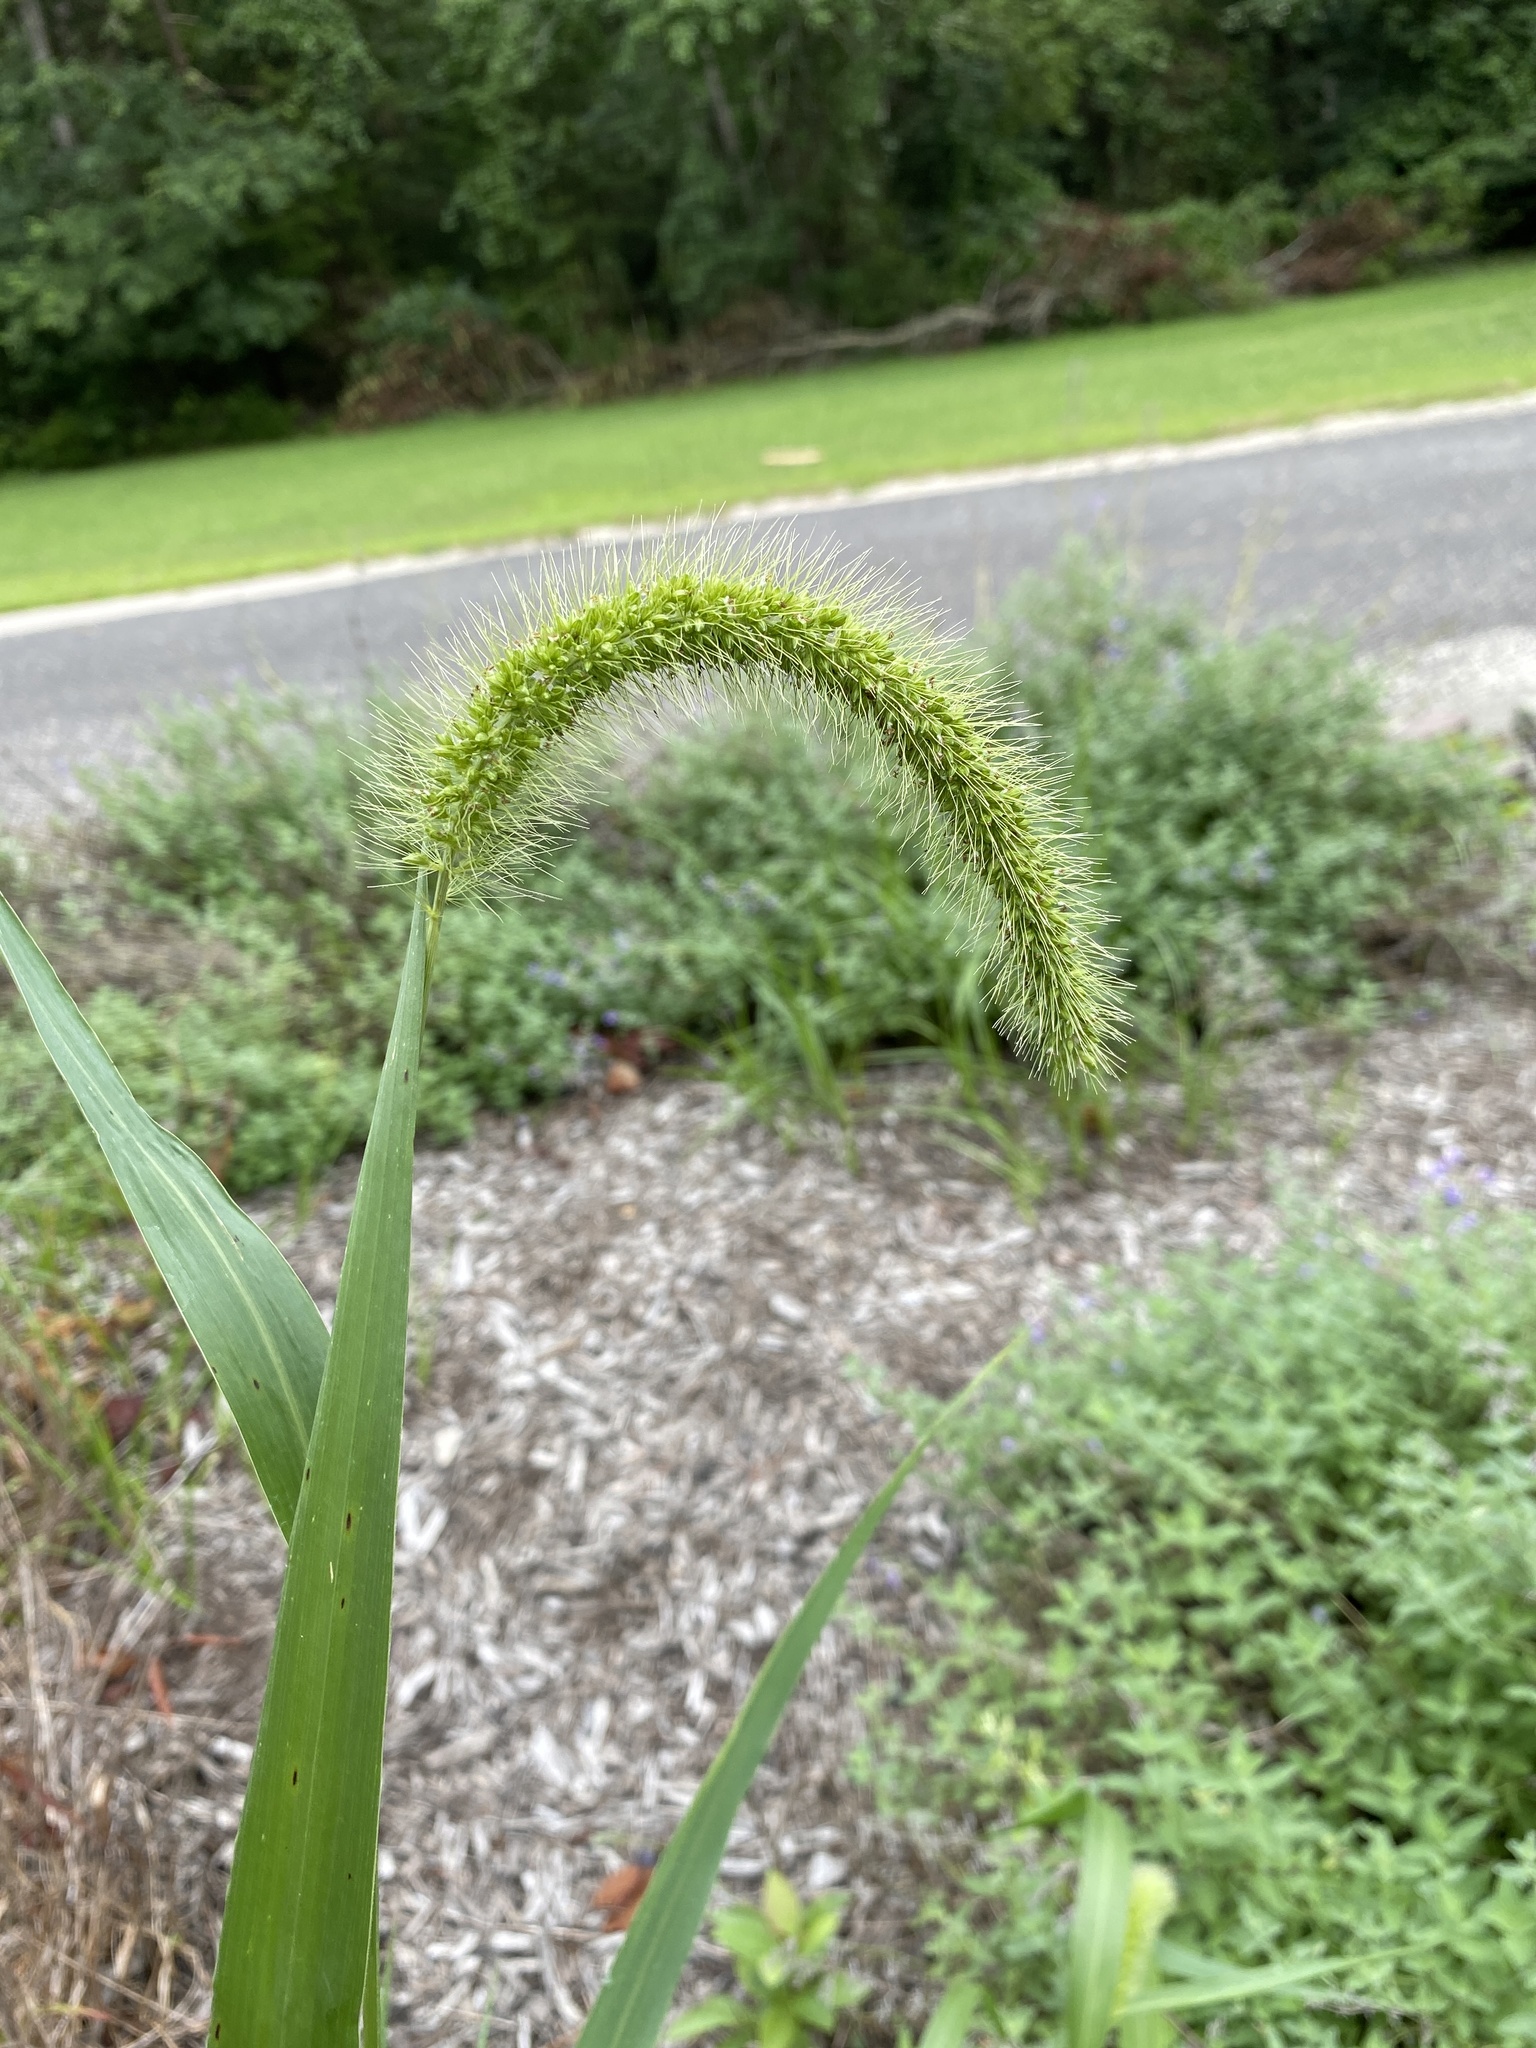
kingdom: Plantae
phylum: Tracheophyta
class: Liliopsida
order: Poales
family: Poaceae
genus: Setaria
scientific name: Setaria faberi
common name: Nodding bristle-grass
